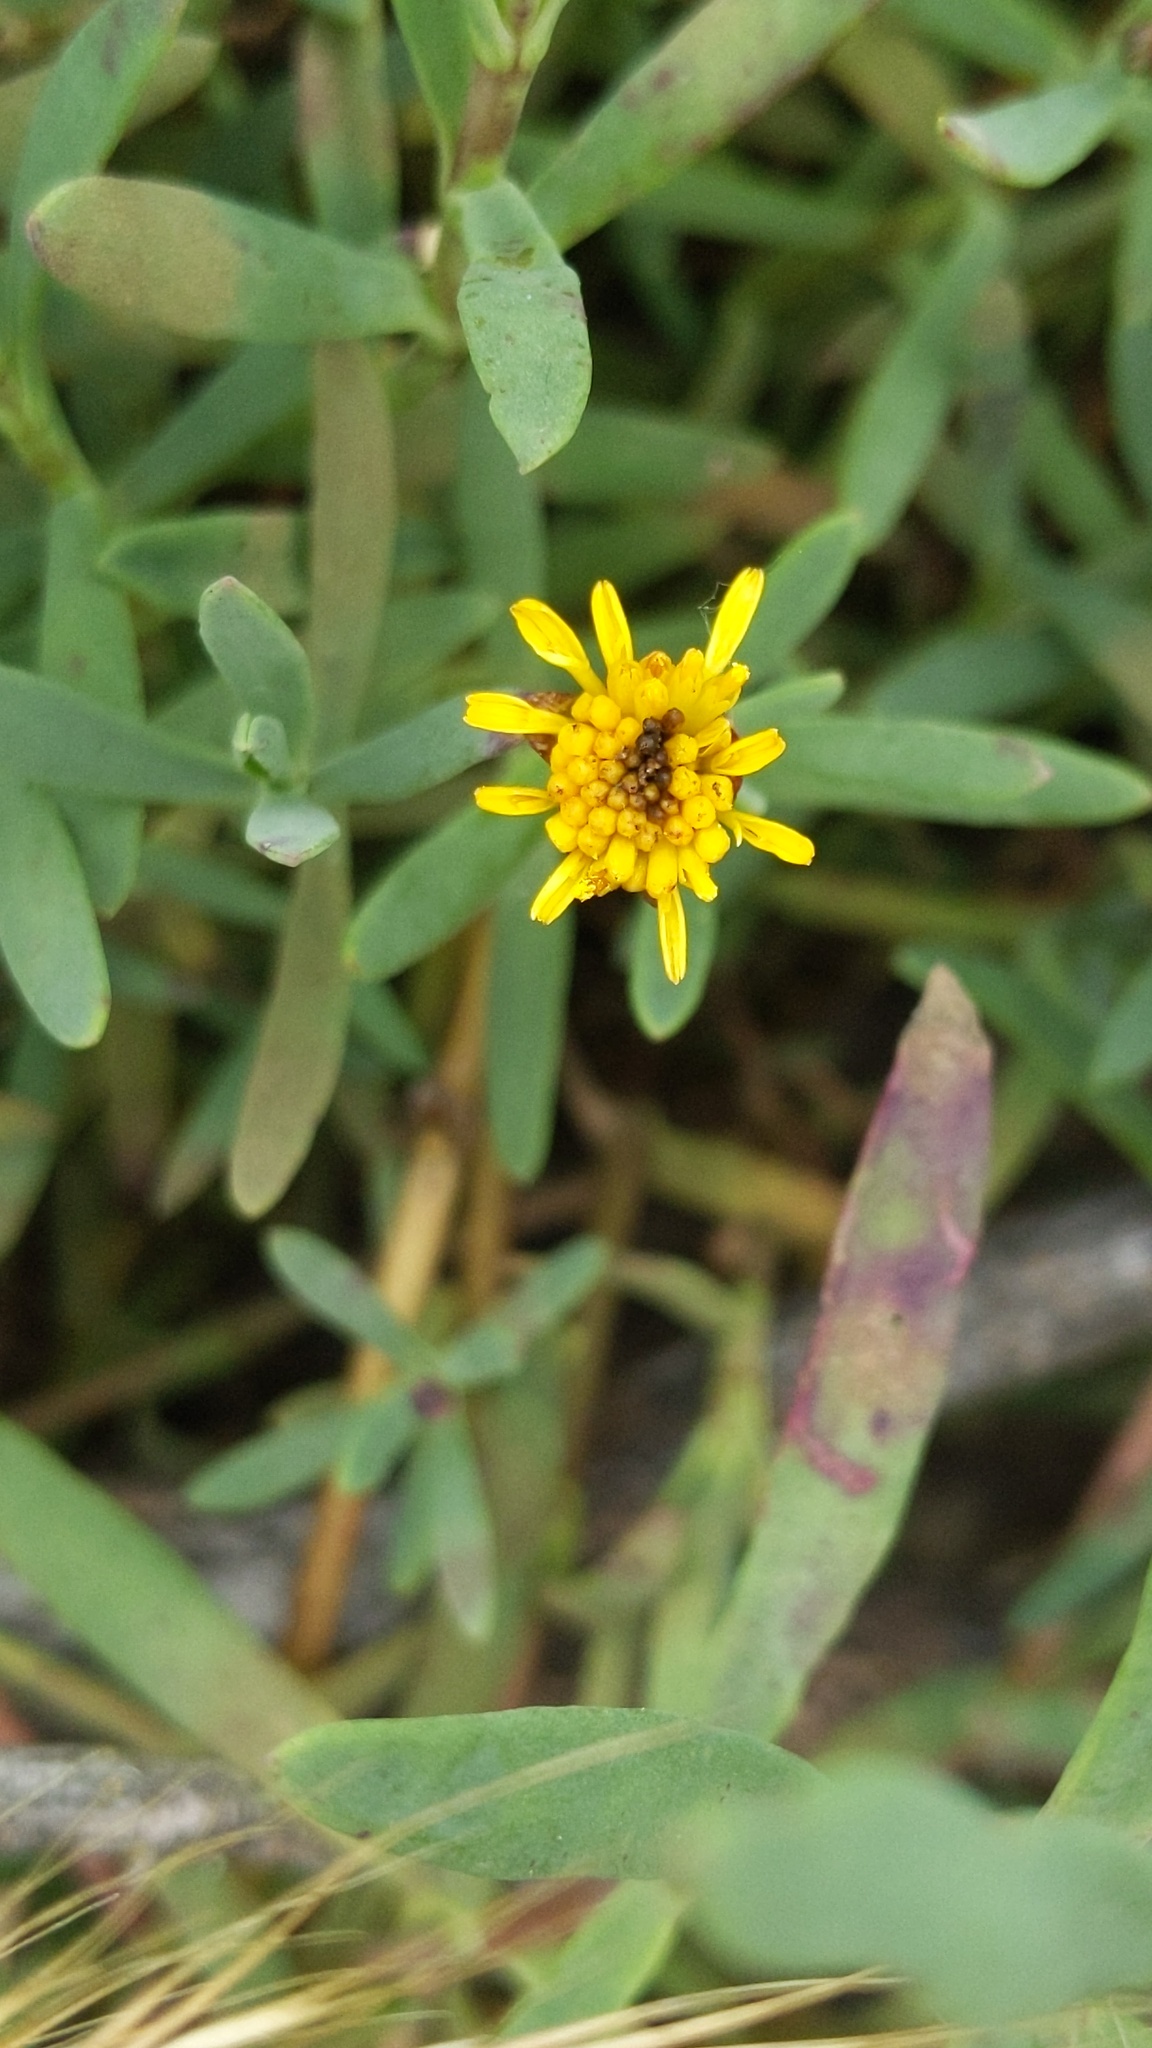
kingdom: Plantae
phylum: Tracheophyta
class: Magnoliopsida
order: Asterales
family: Asteraceae
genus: Jaumea
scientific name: Jaumea carnosa
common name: Fleshy jaumea
